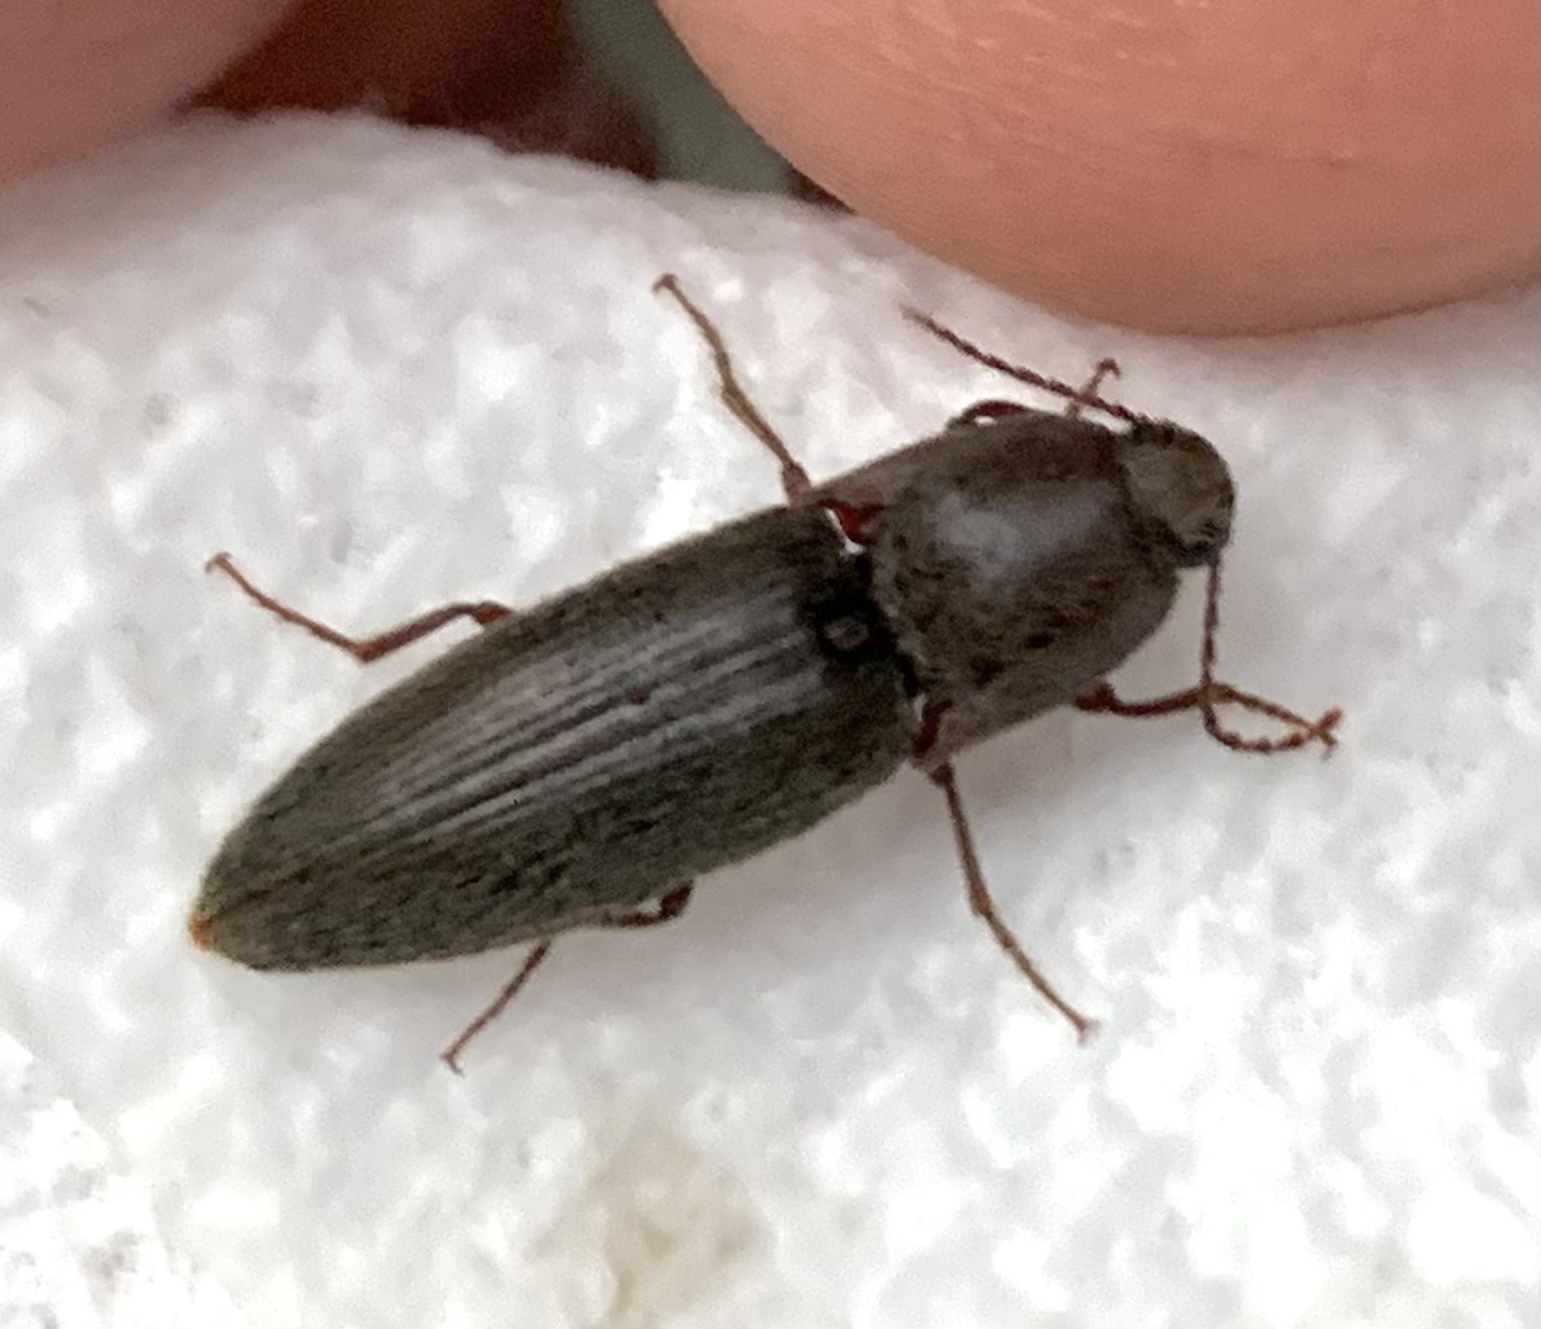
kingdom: Animalia
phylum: Arthropoda
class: Insecta
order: Coleoptera
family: Elateridae
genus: Melanotus
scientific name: Melanotus
